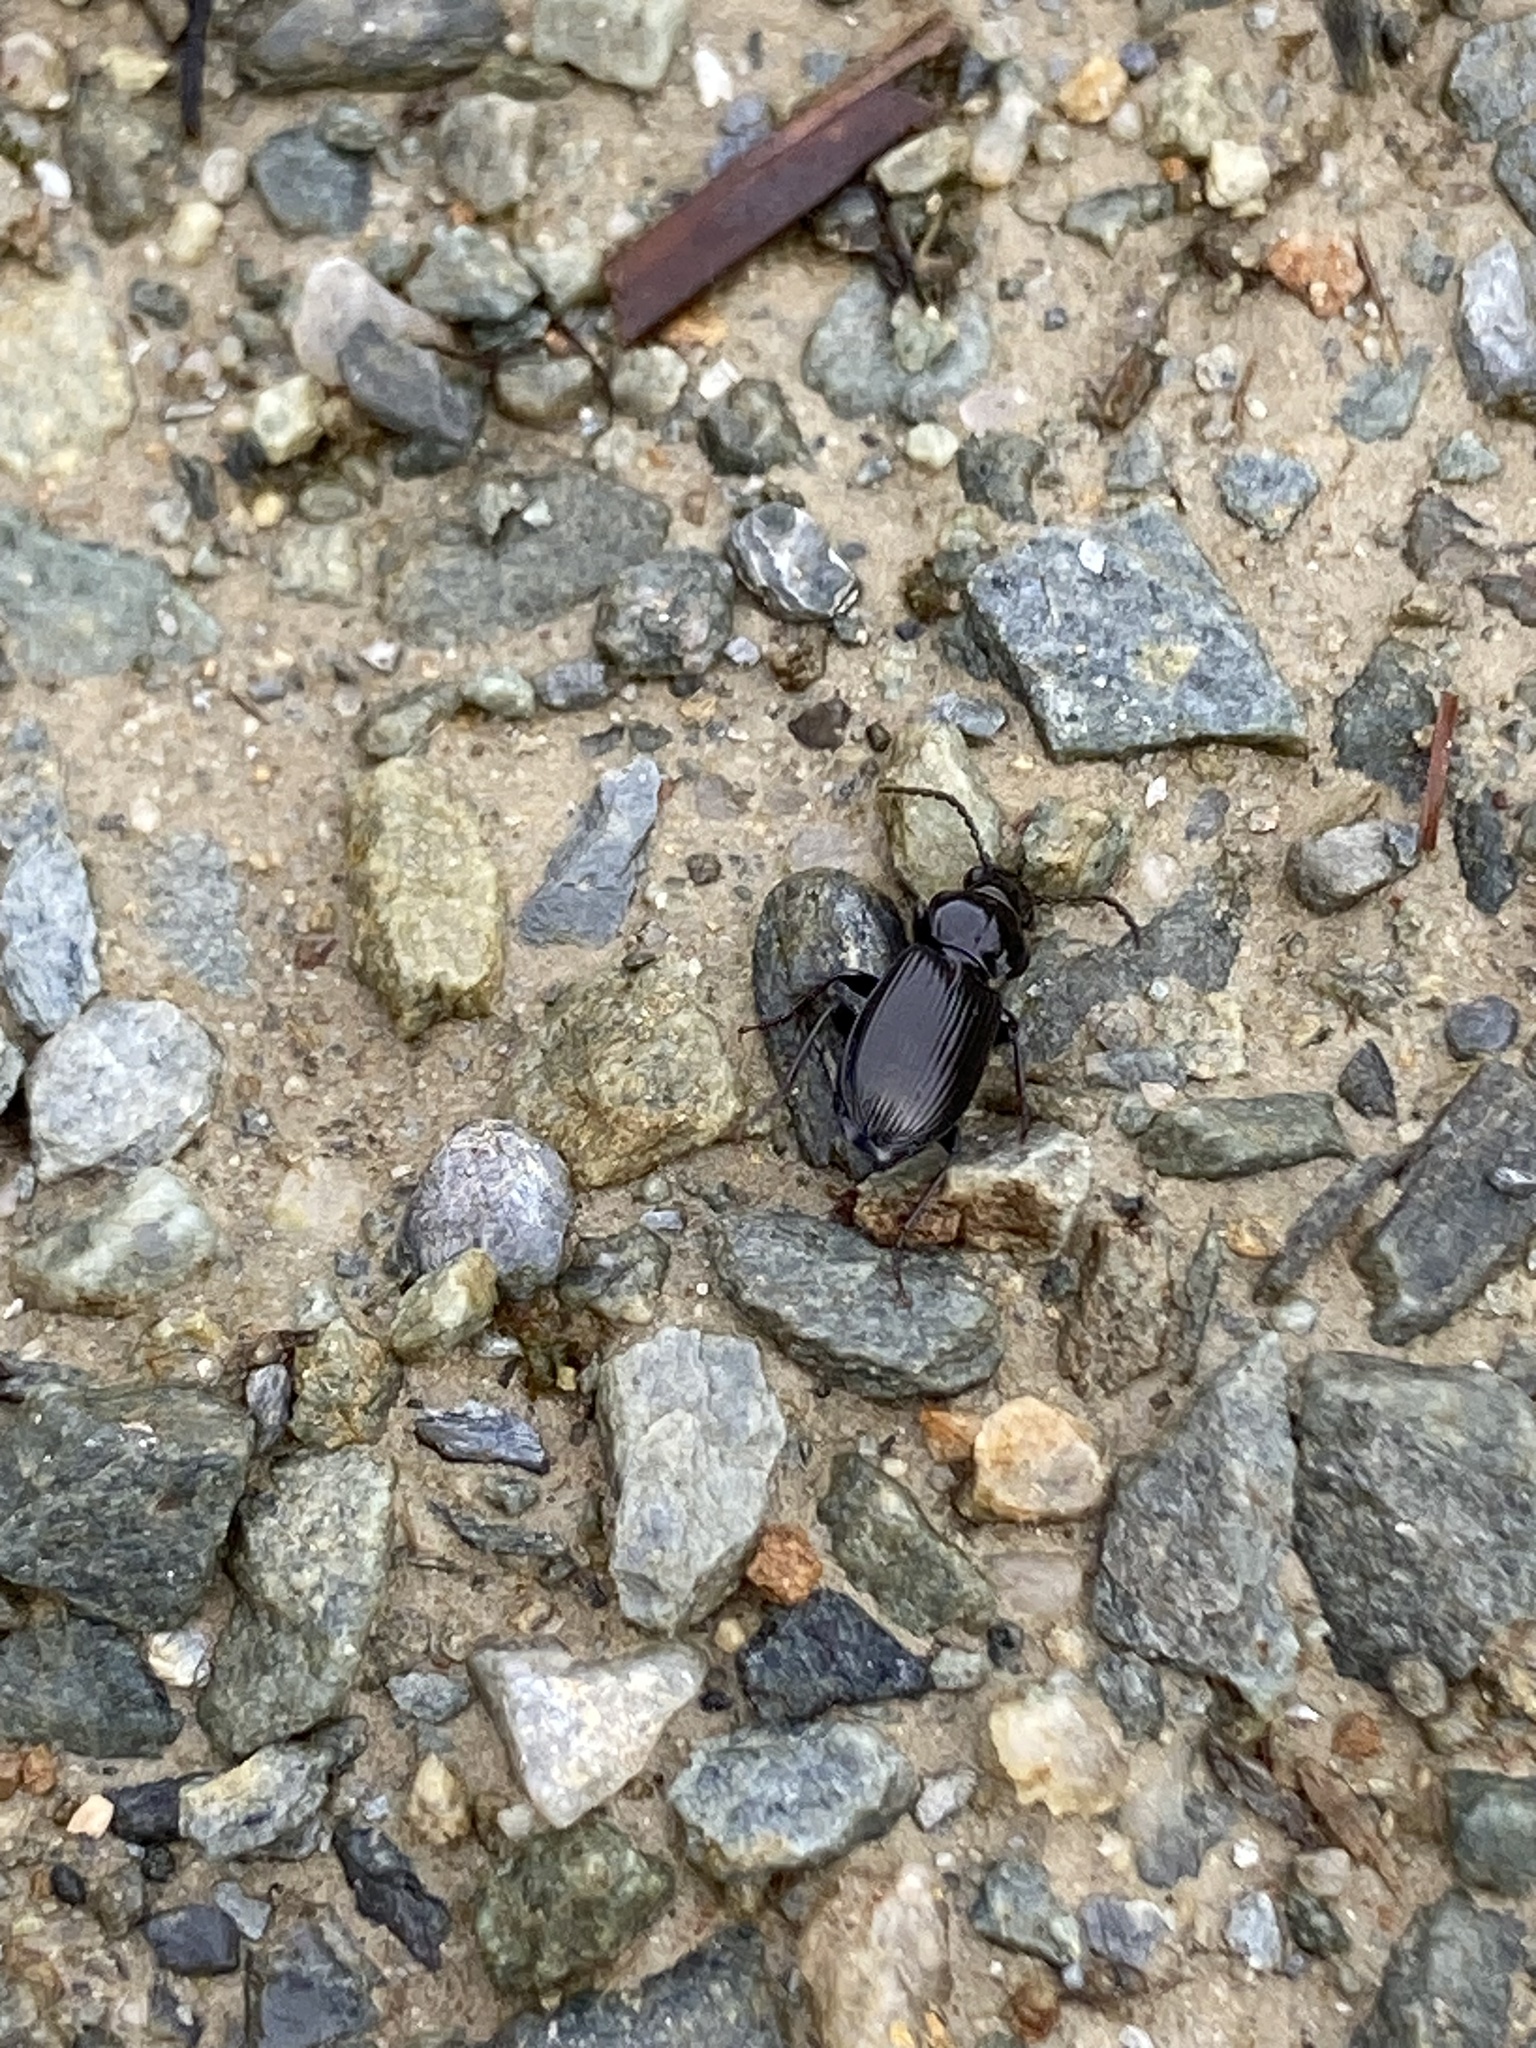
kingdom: Animalia
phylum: Arthropoda
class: Insecta
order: Coleoptera
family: Carabidae
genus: Pterostichus
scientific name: Pterostichus madidus
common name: Black clock
